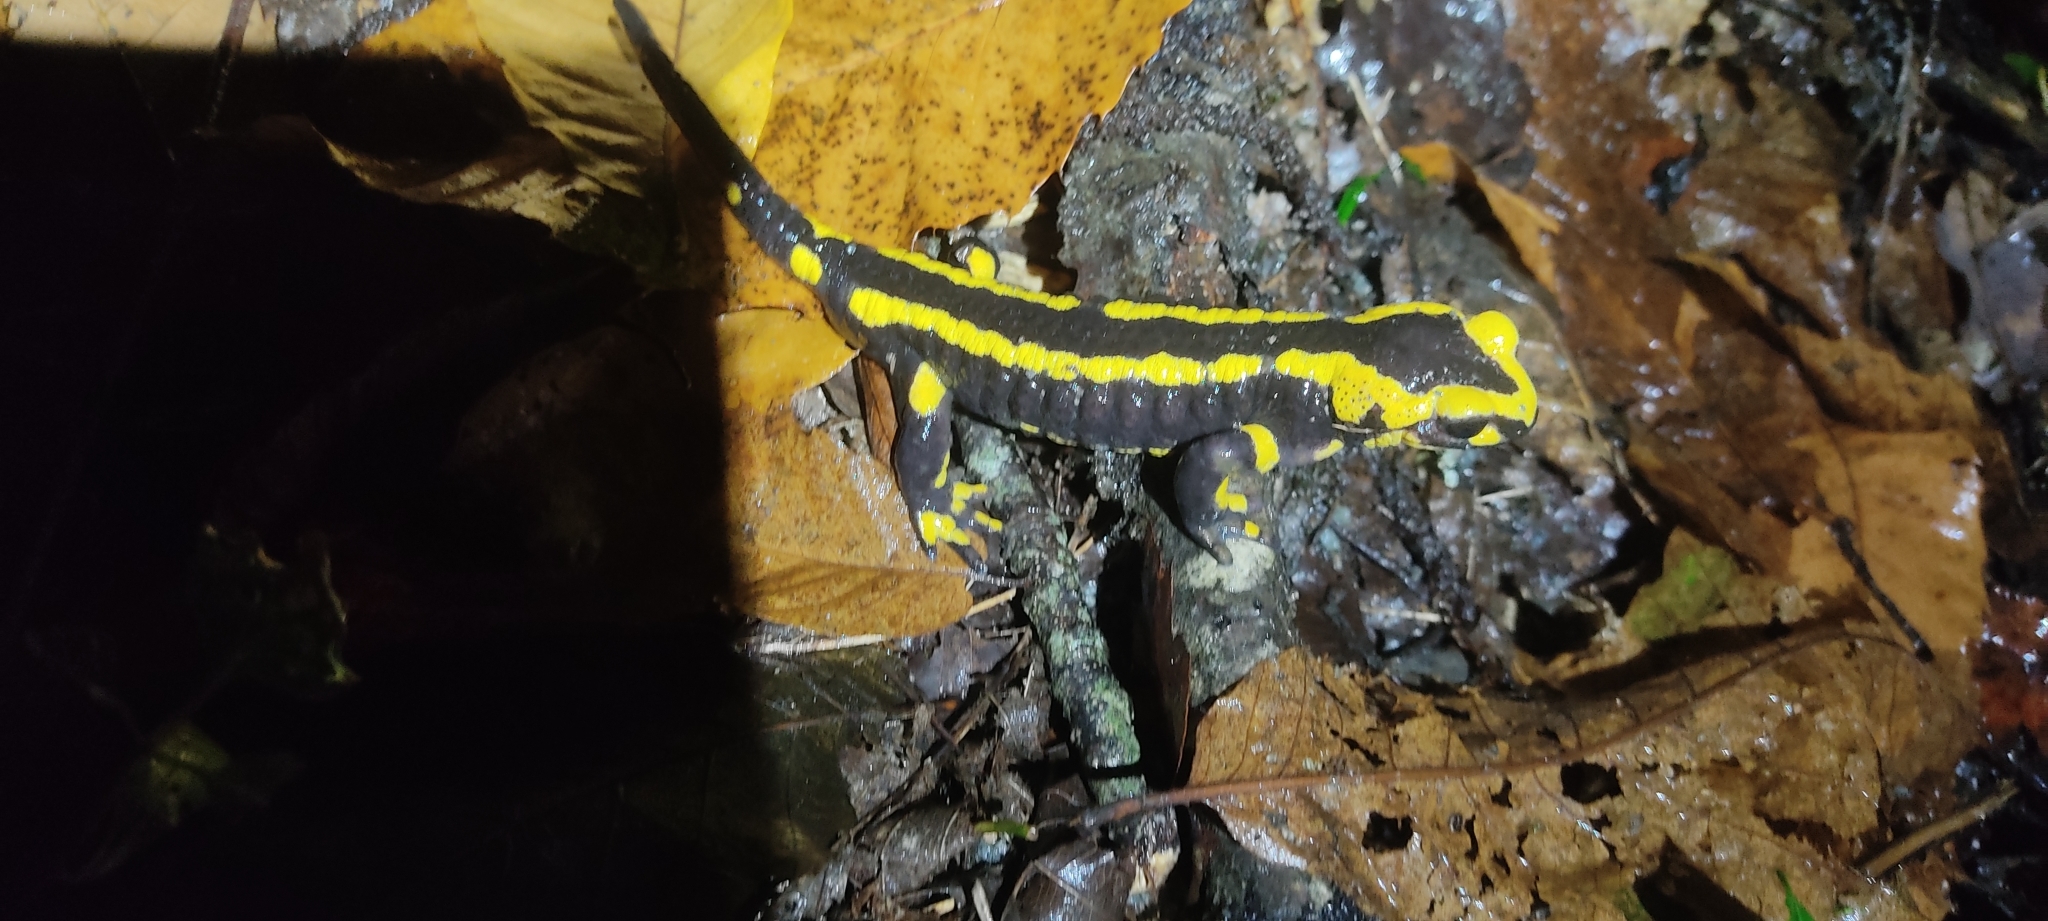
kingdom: Animalia
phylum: Chordata
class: Amphibia
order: Caudata
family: Salamandridae
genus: Salamandra
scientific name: Salamandra salamandra
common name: Fire salamander
